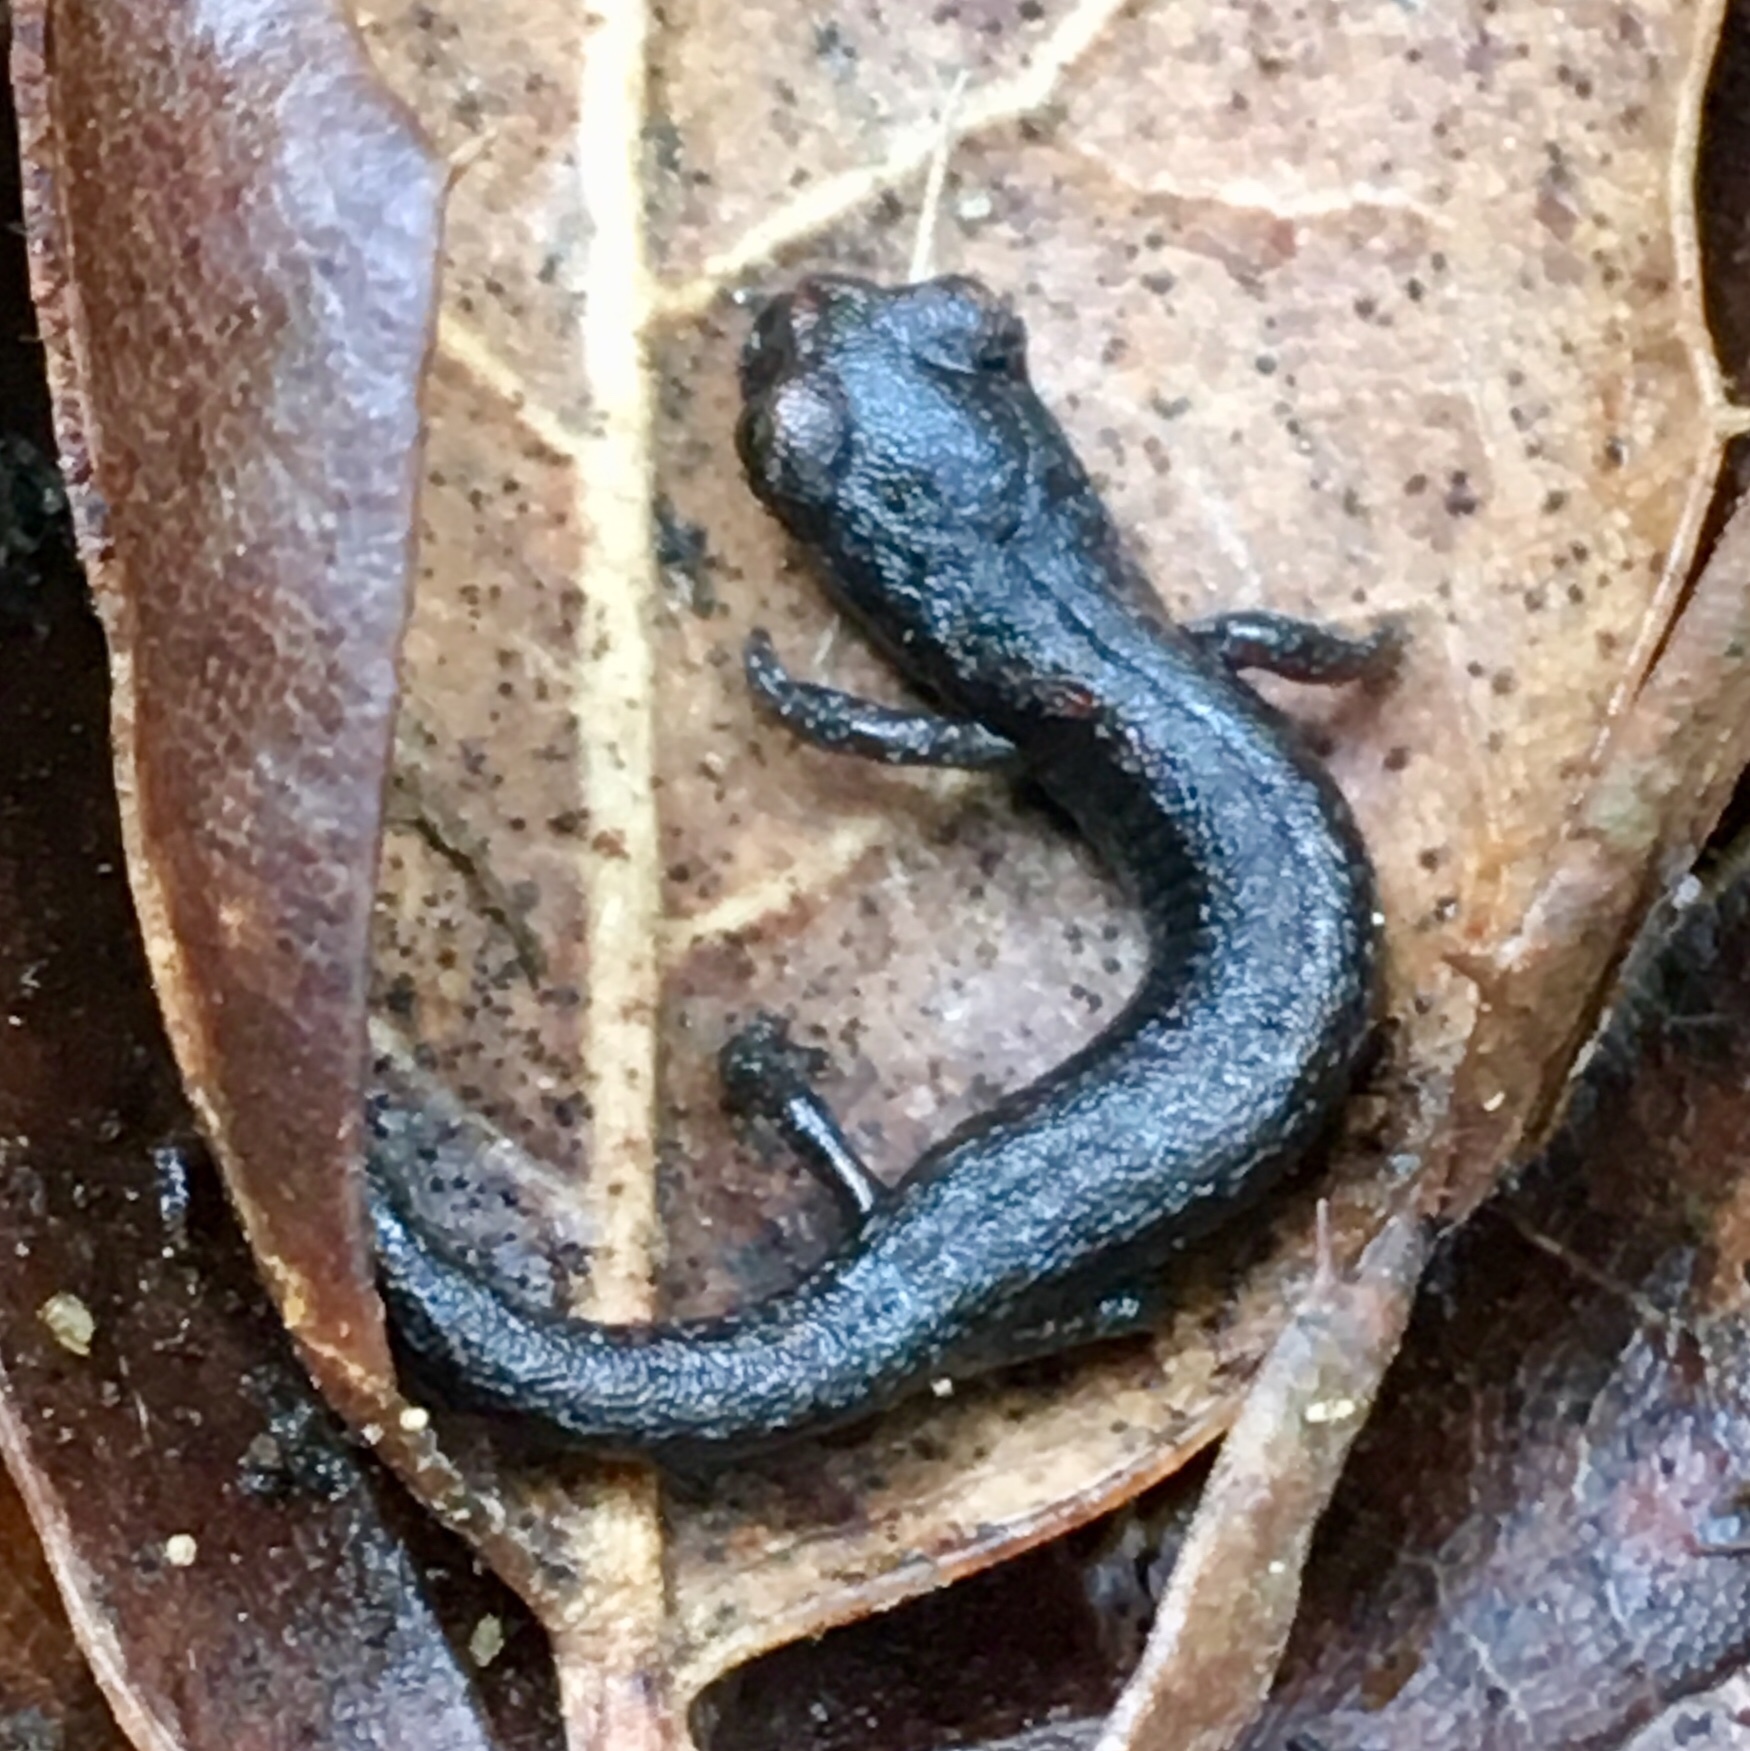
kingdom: Animalia
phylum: Chordata
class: Amphibia
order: Caudata
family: Plethodontidae
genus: Batrachoseps
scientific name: Batrachoseps major
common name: Garden slender salamander
